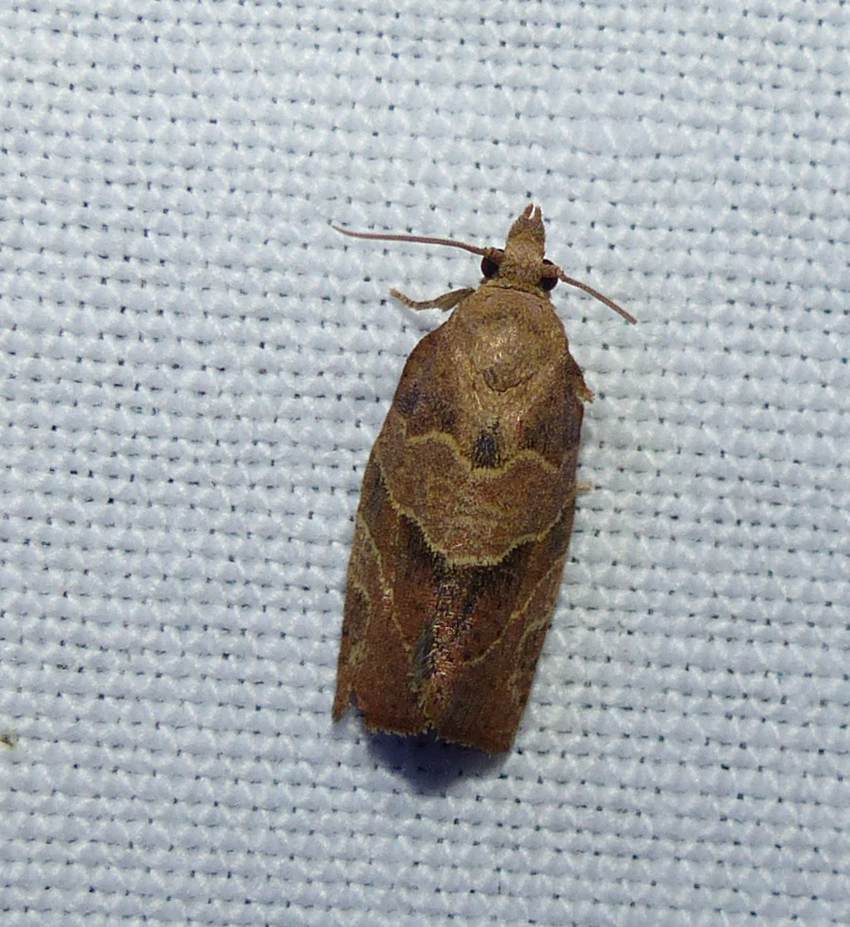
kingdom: Animalia
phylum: Arthropoda
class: Insecta
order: Lepidoptera
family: Tortricidae
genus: Pandemis
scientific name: Pandemis limitata
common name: Three-lined leafroller moth
